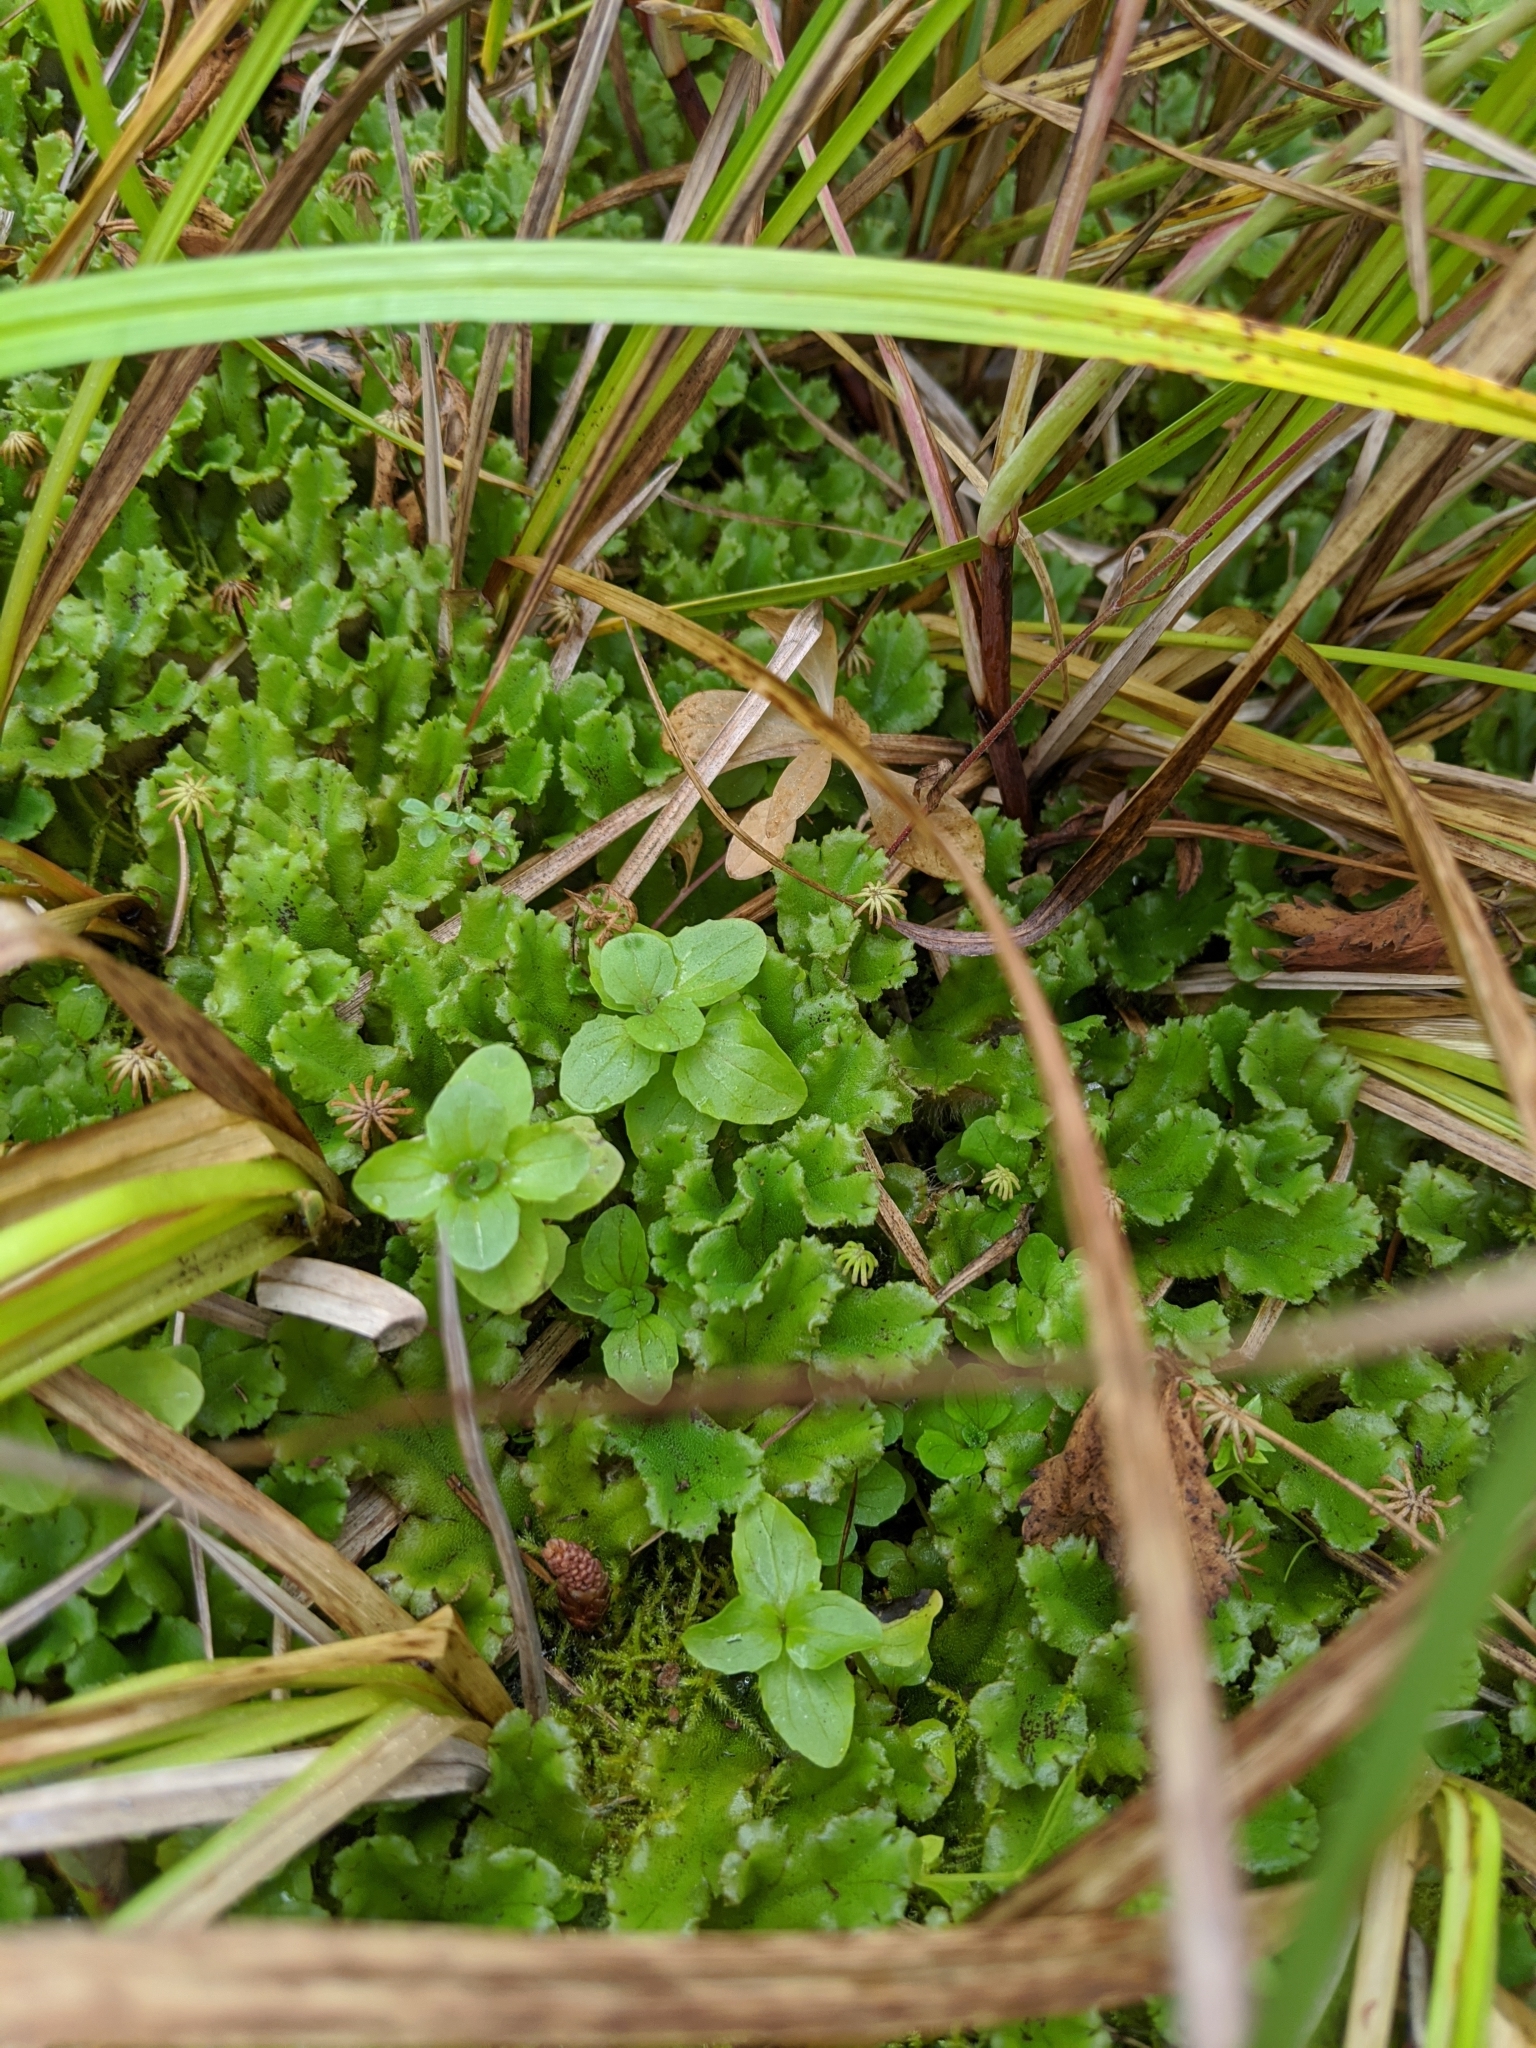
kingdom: Plantae
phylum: Marchantiophyta
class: Marchantiopsida
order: Marchantiales
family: Marchantiaceae
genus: Marchantia
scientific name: Marchantia polymorpha
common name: Common liverwort
